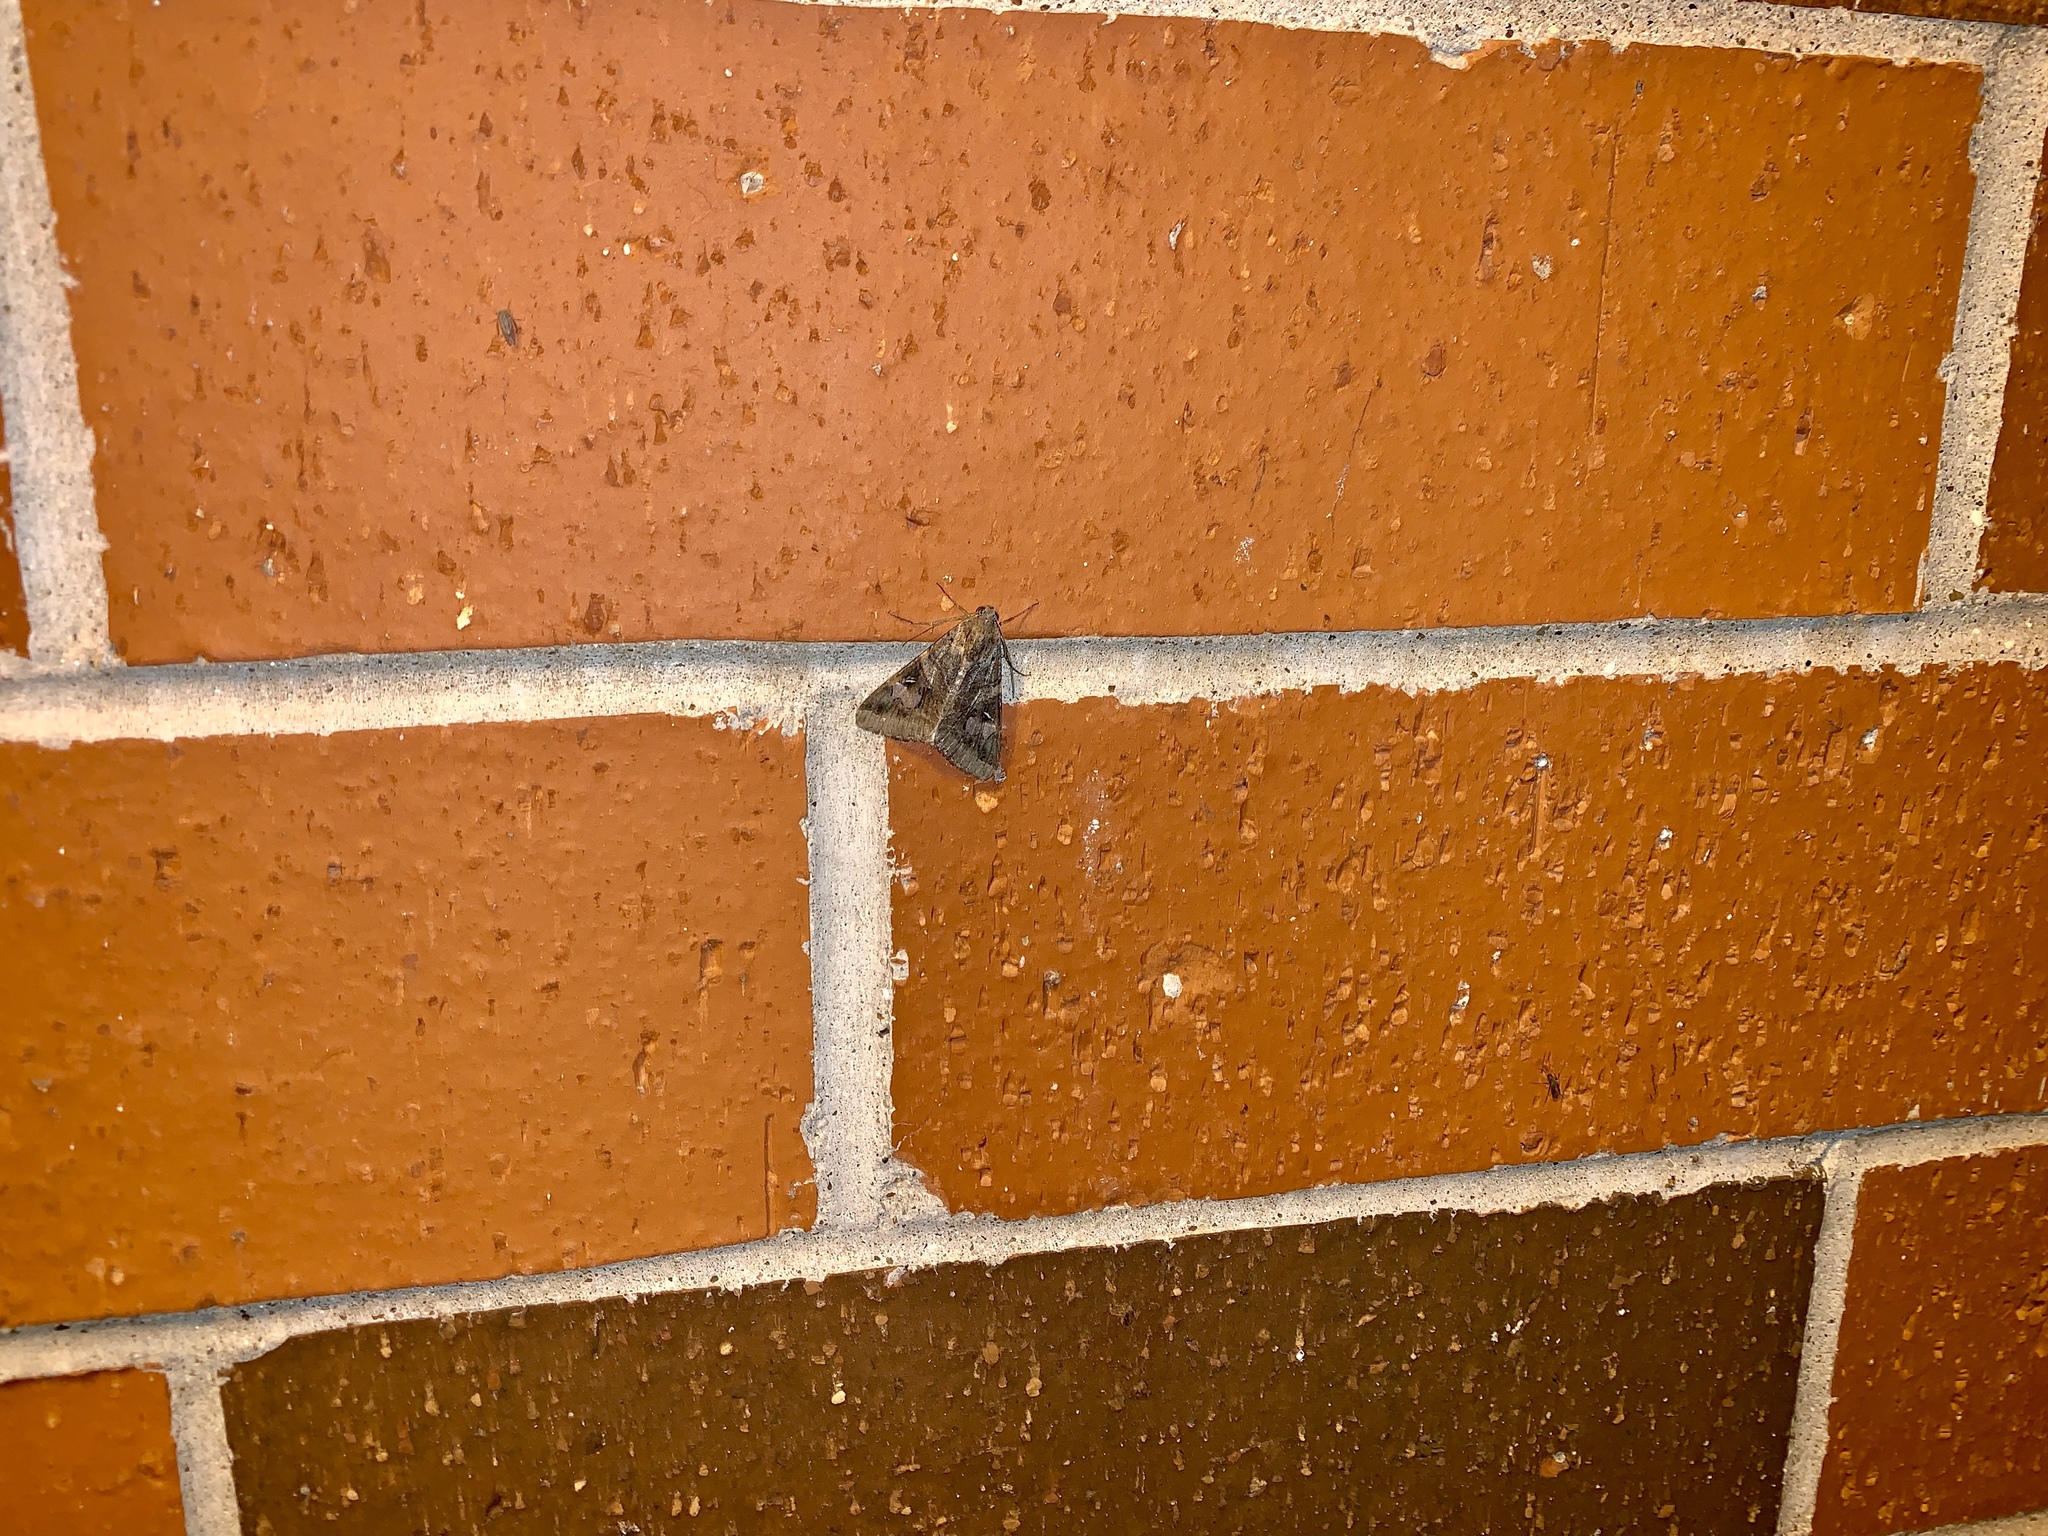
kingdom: Animalia
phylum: Arthropoda
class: Insecta
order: Lepidoptera
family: Erebidae
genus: Melipotis
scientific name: Melipotis indomita
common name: Moth
